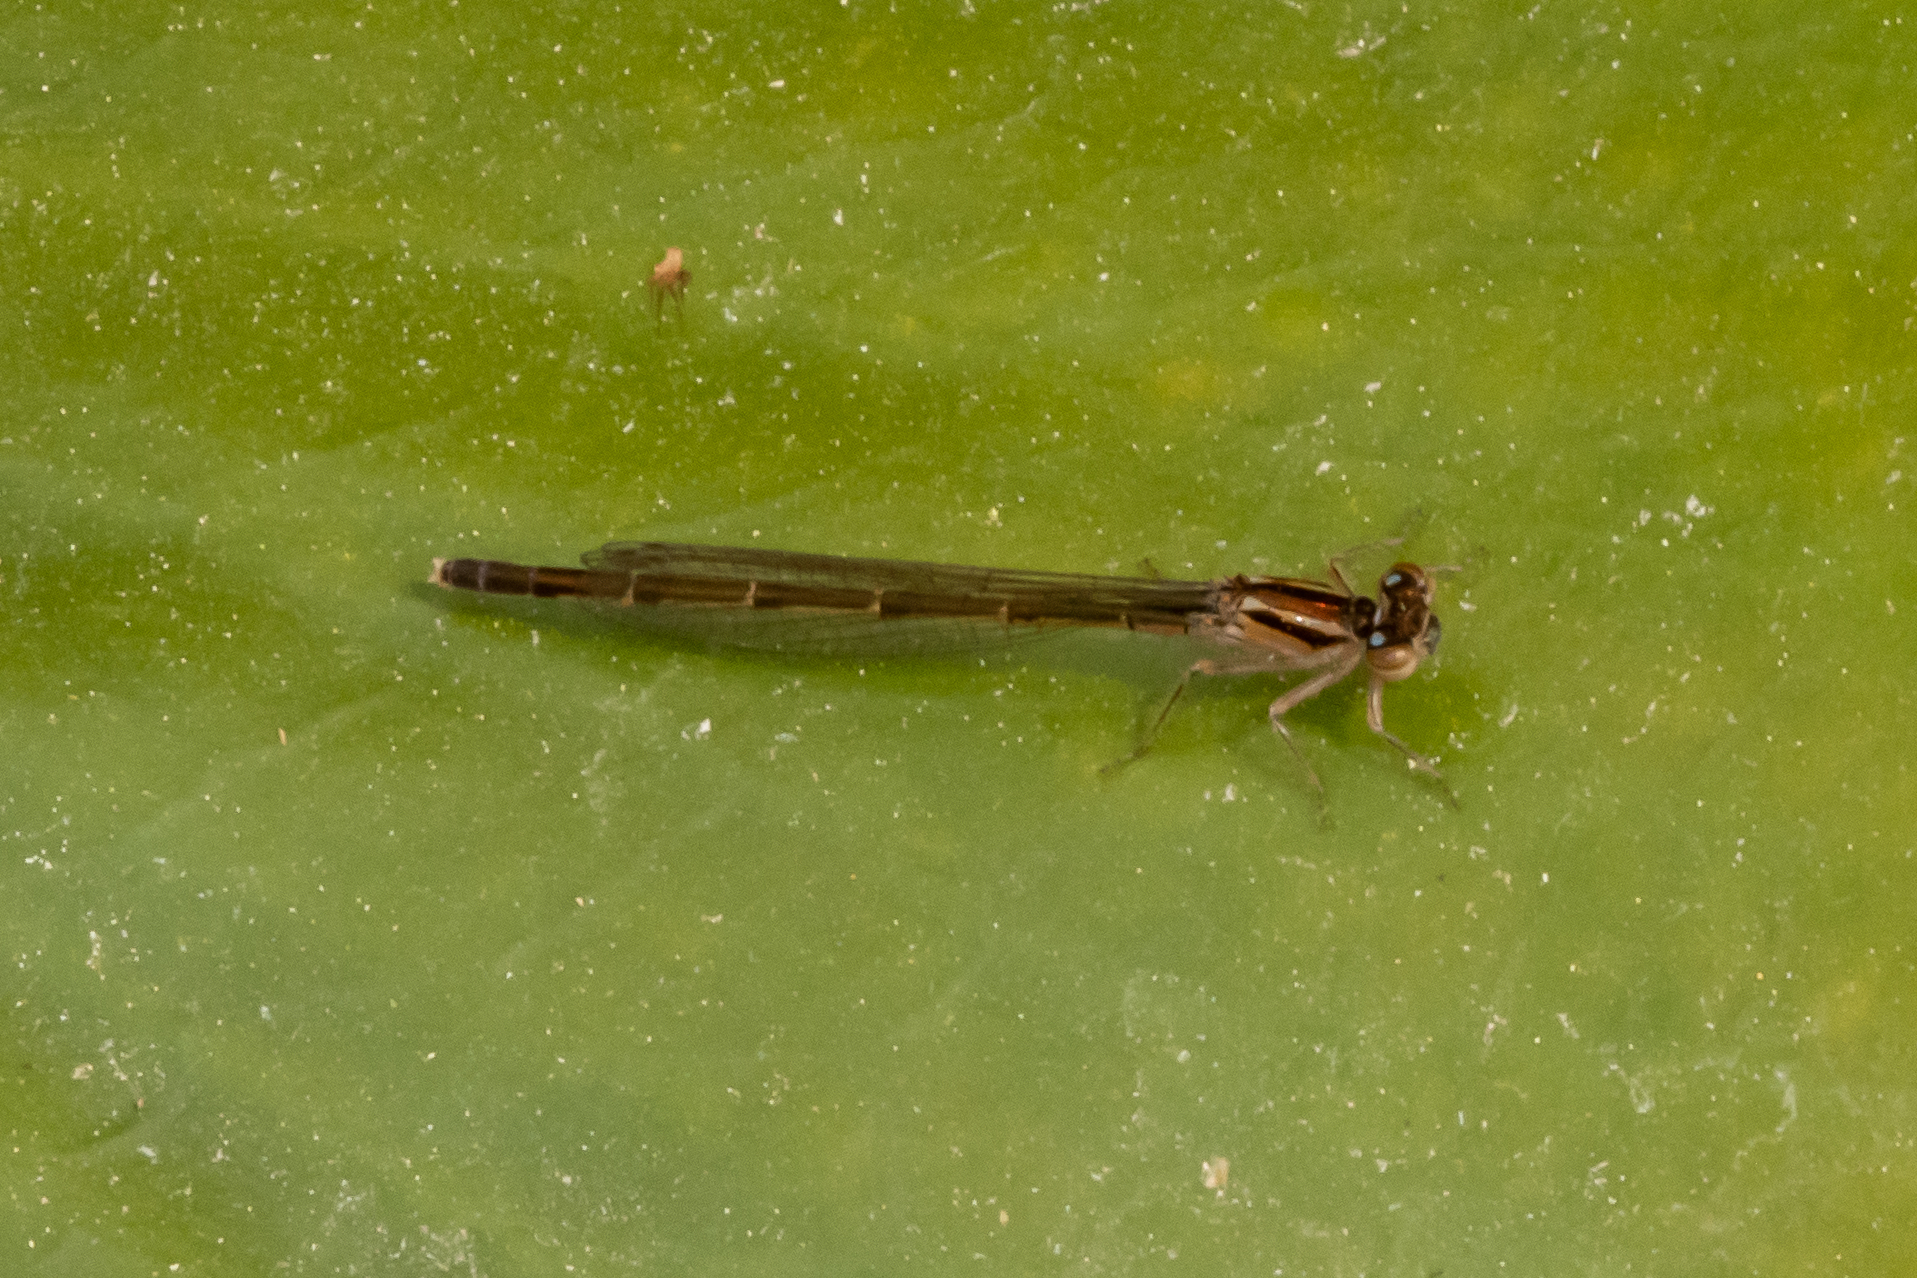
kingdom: Animalia
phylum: Arthropoda
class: Insecta
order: Odonata
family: Coenagrionidae
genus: Ischnura
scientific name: Ischnura posita
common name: Fragile forktail
